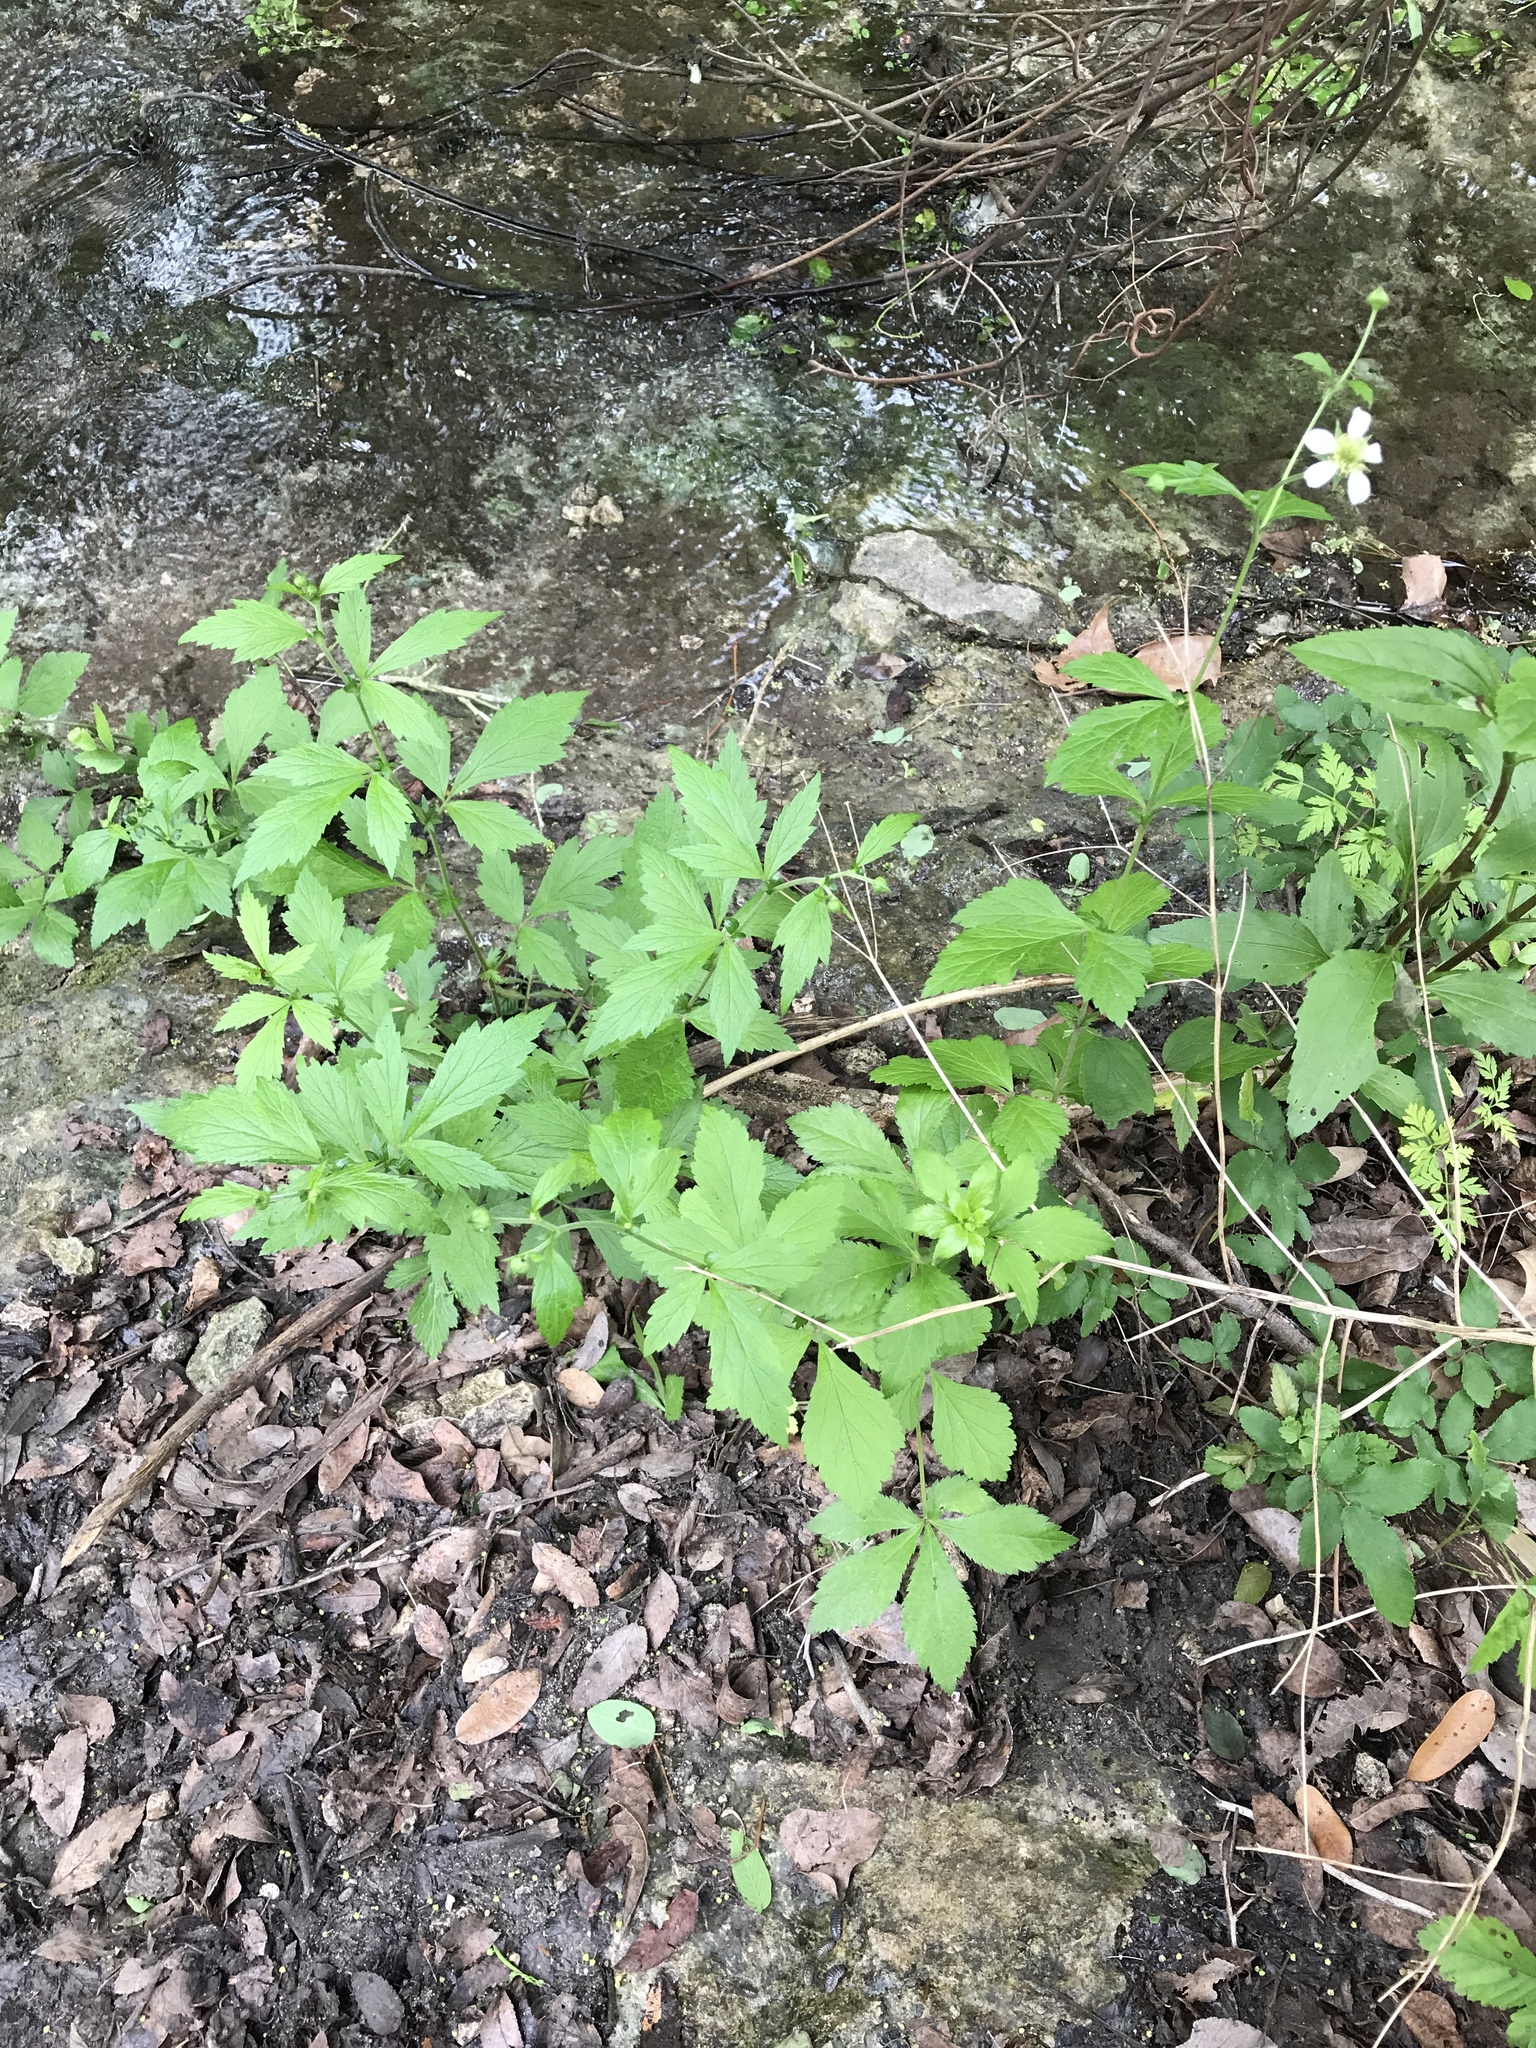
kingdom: Plantae
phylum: Tracheophyta
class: Magnoliopsida
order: Rosales
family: Rosaceae
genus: Geum
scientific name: Geum canadense
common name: White avens
